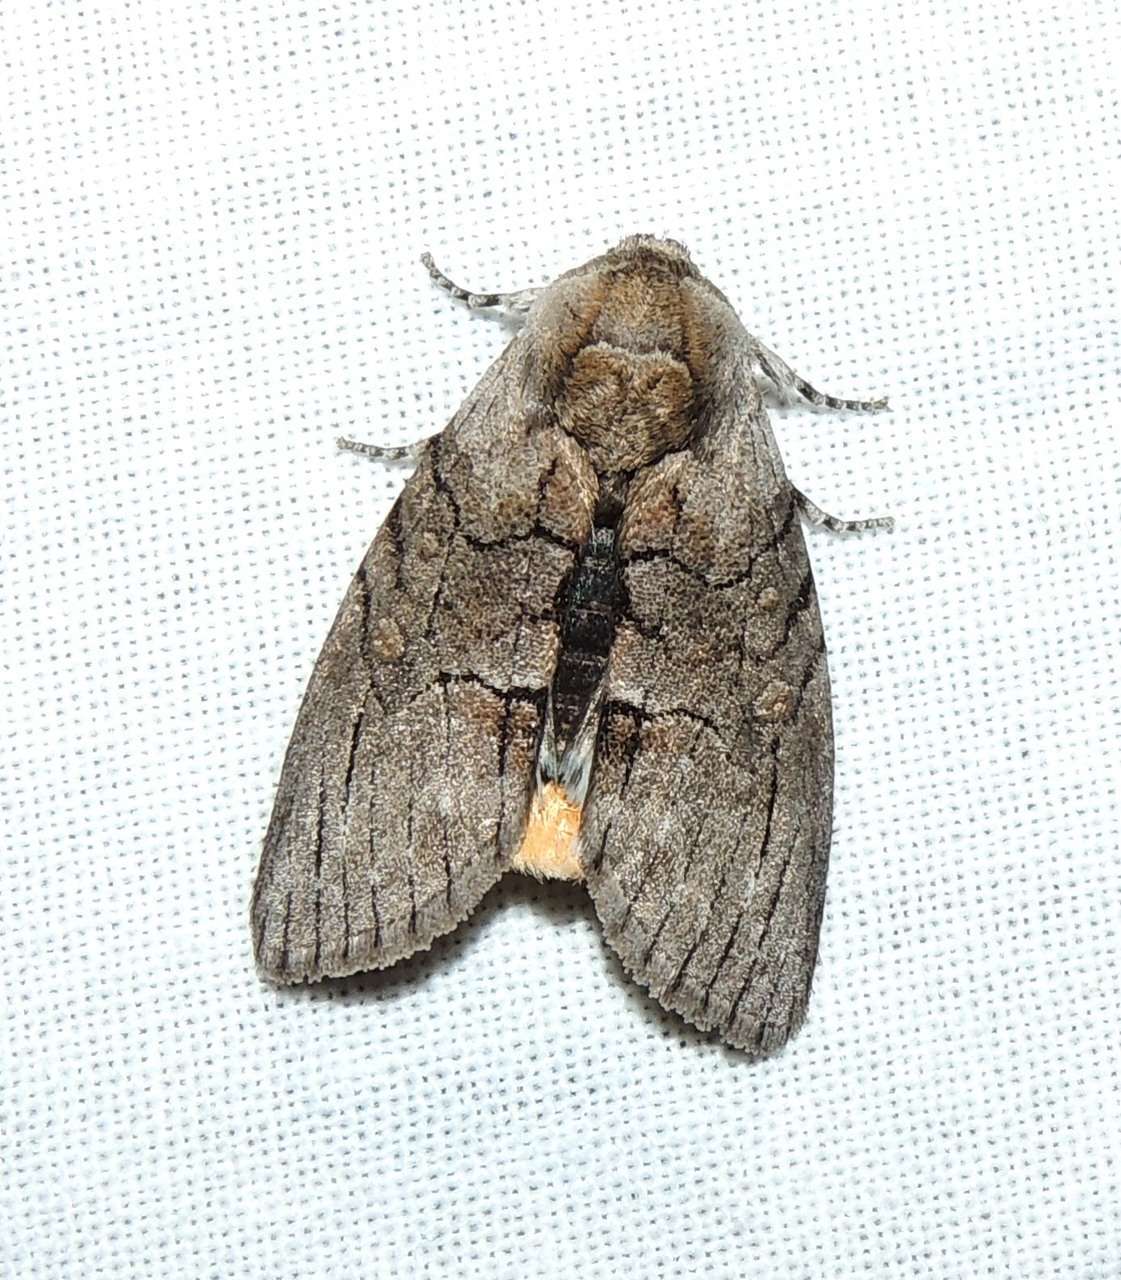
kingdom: Animalia
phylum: Arthropoda
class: Insecta
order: Lepidoptera
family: Oenosandridae
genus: Discophlebia
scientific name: Discophlebia catocalina
